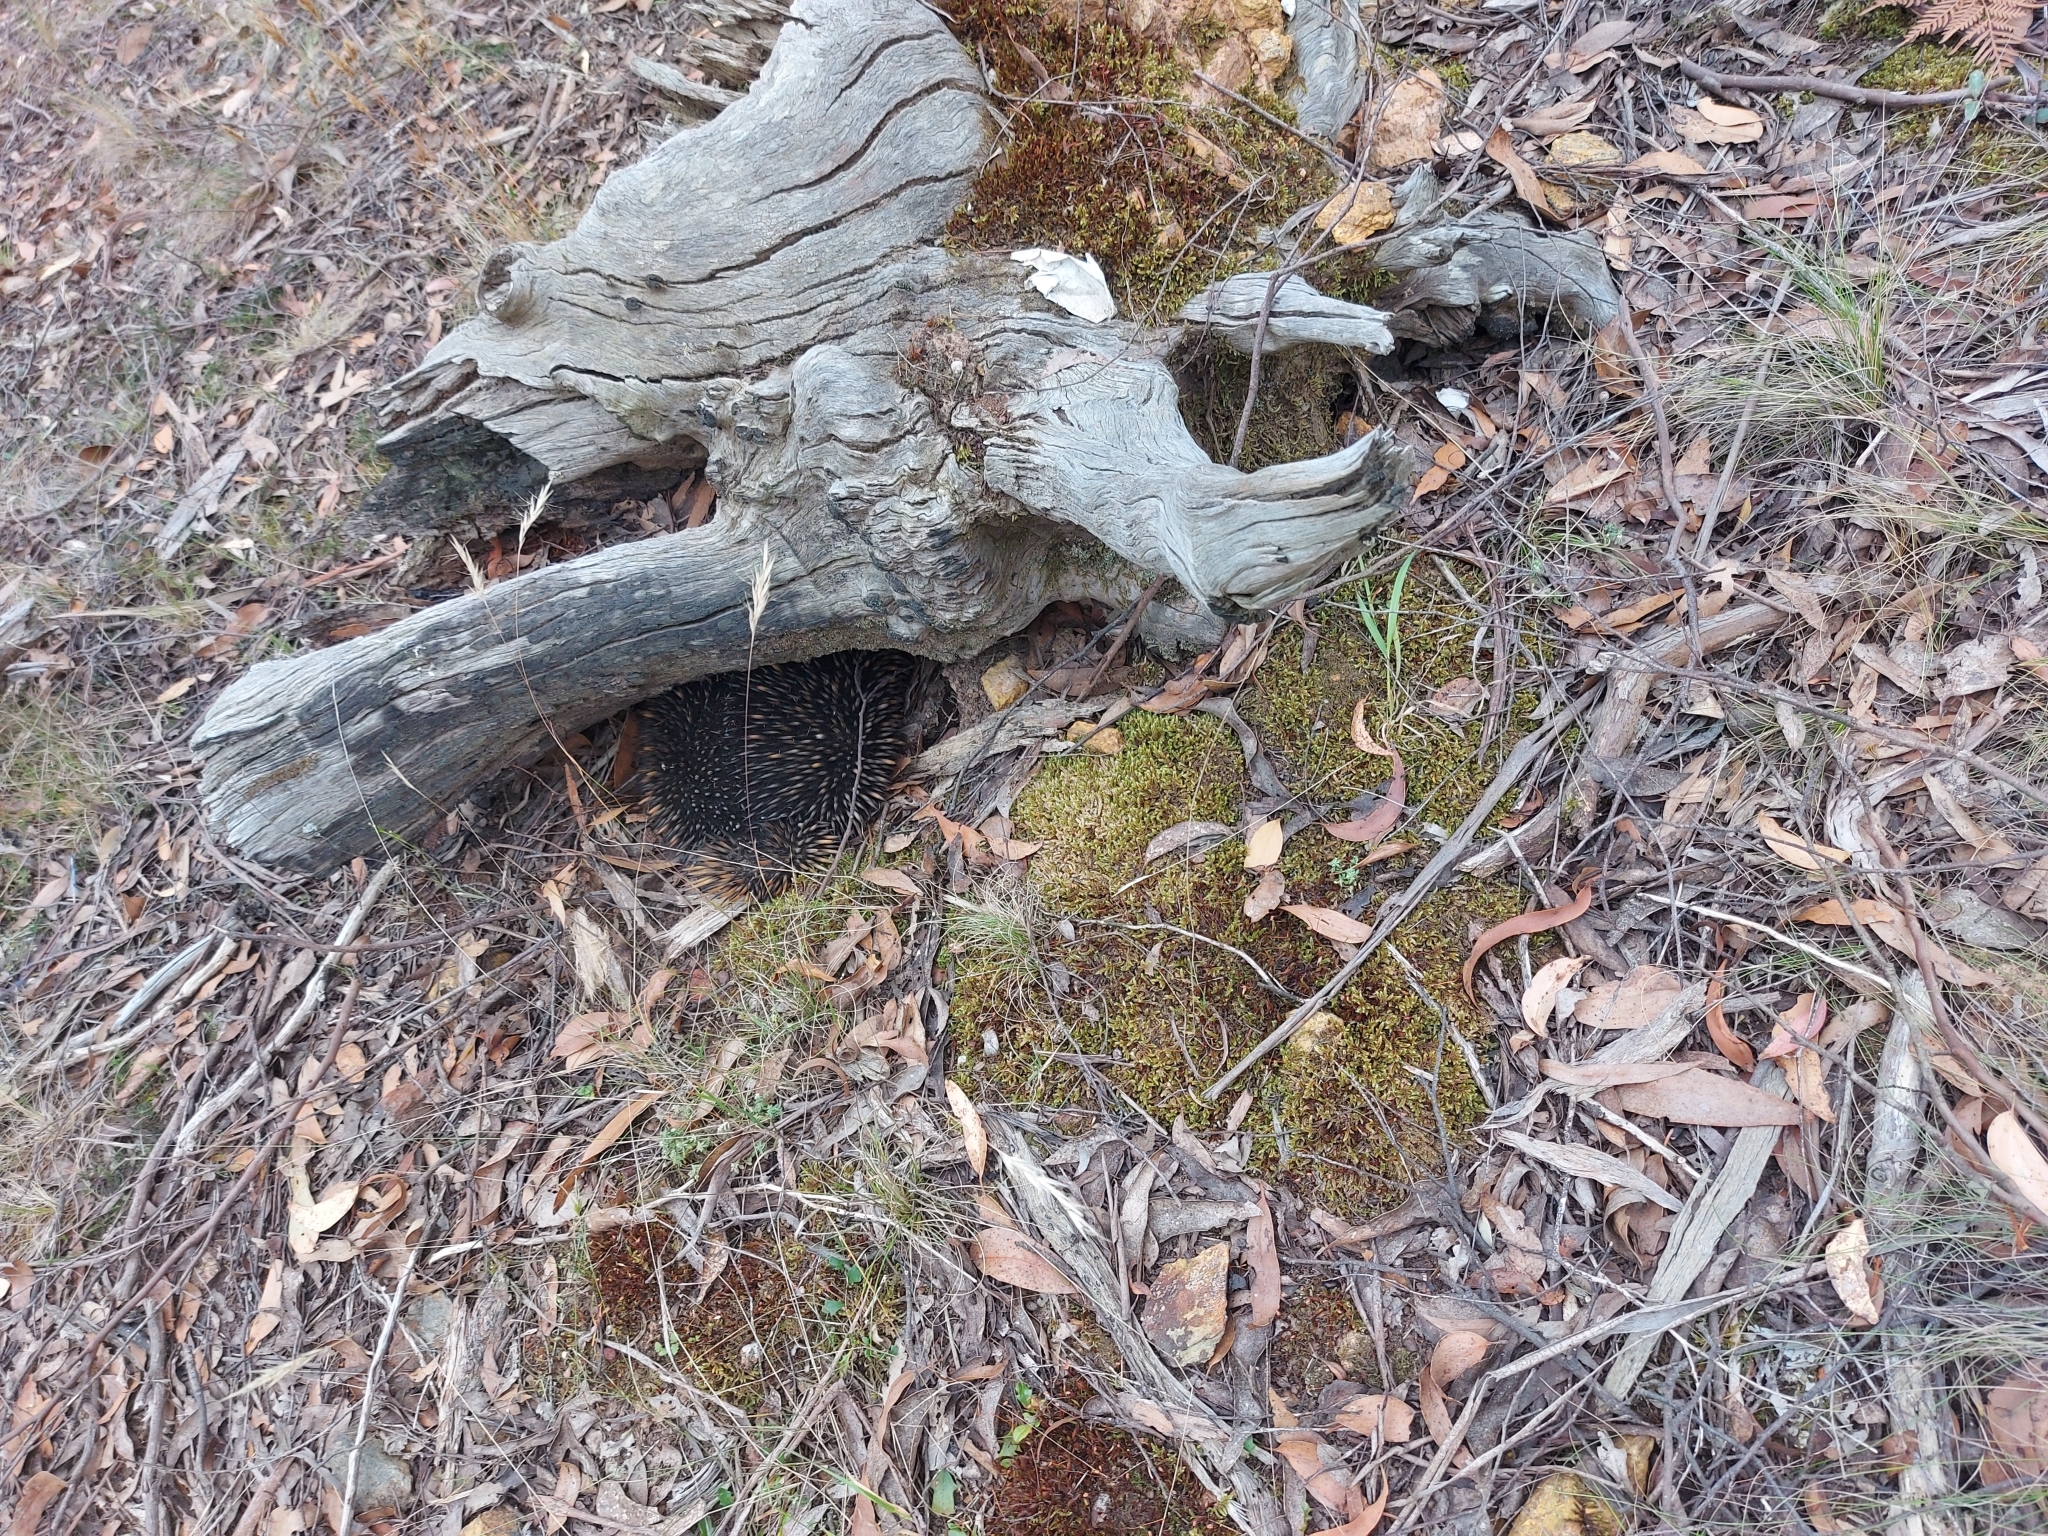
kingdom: Animalia
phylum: Chordata
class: Mammalia
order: Monotremata
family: Tachyglossidae
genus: Tachyglossus
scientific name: Tachyglossus aculeatus
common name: Short-beaked echidna
